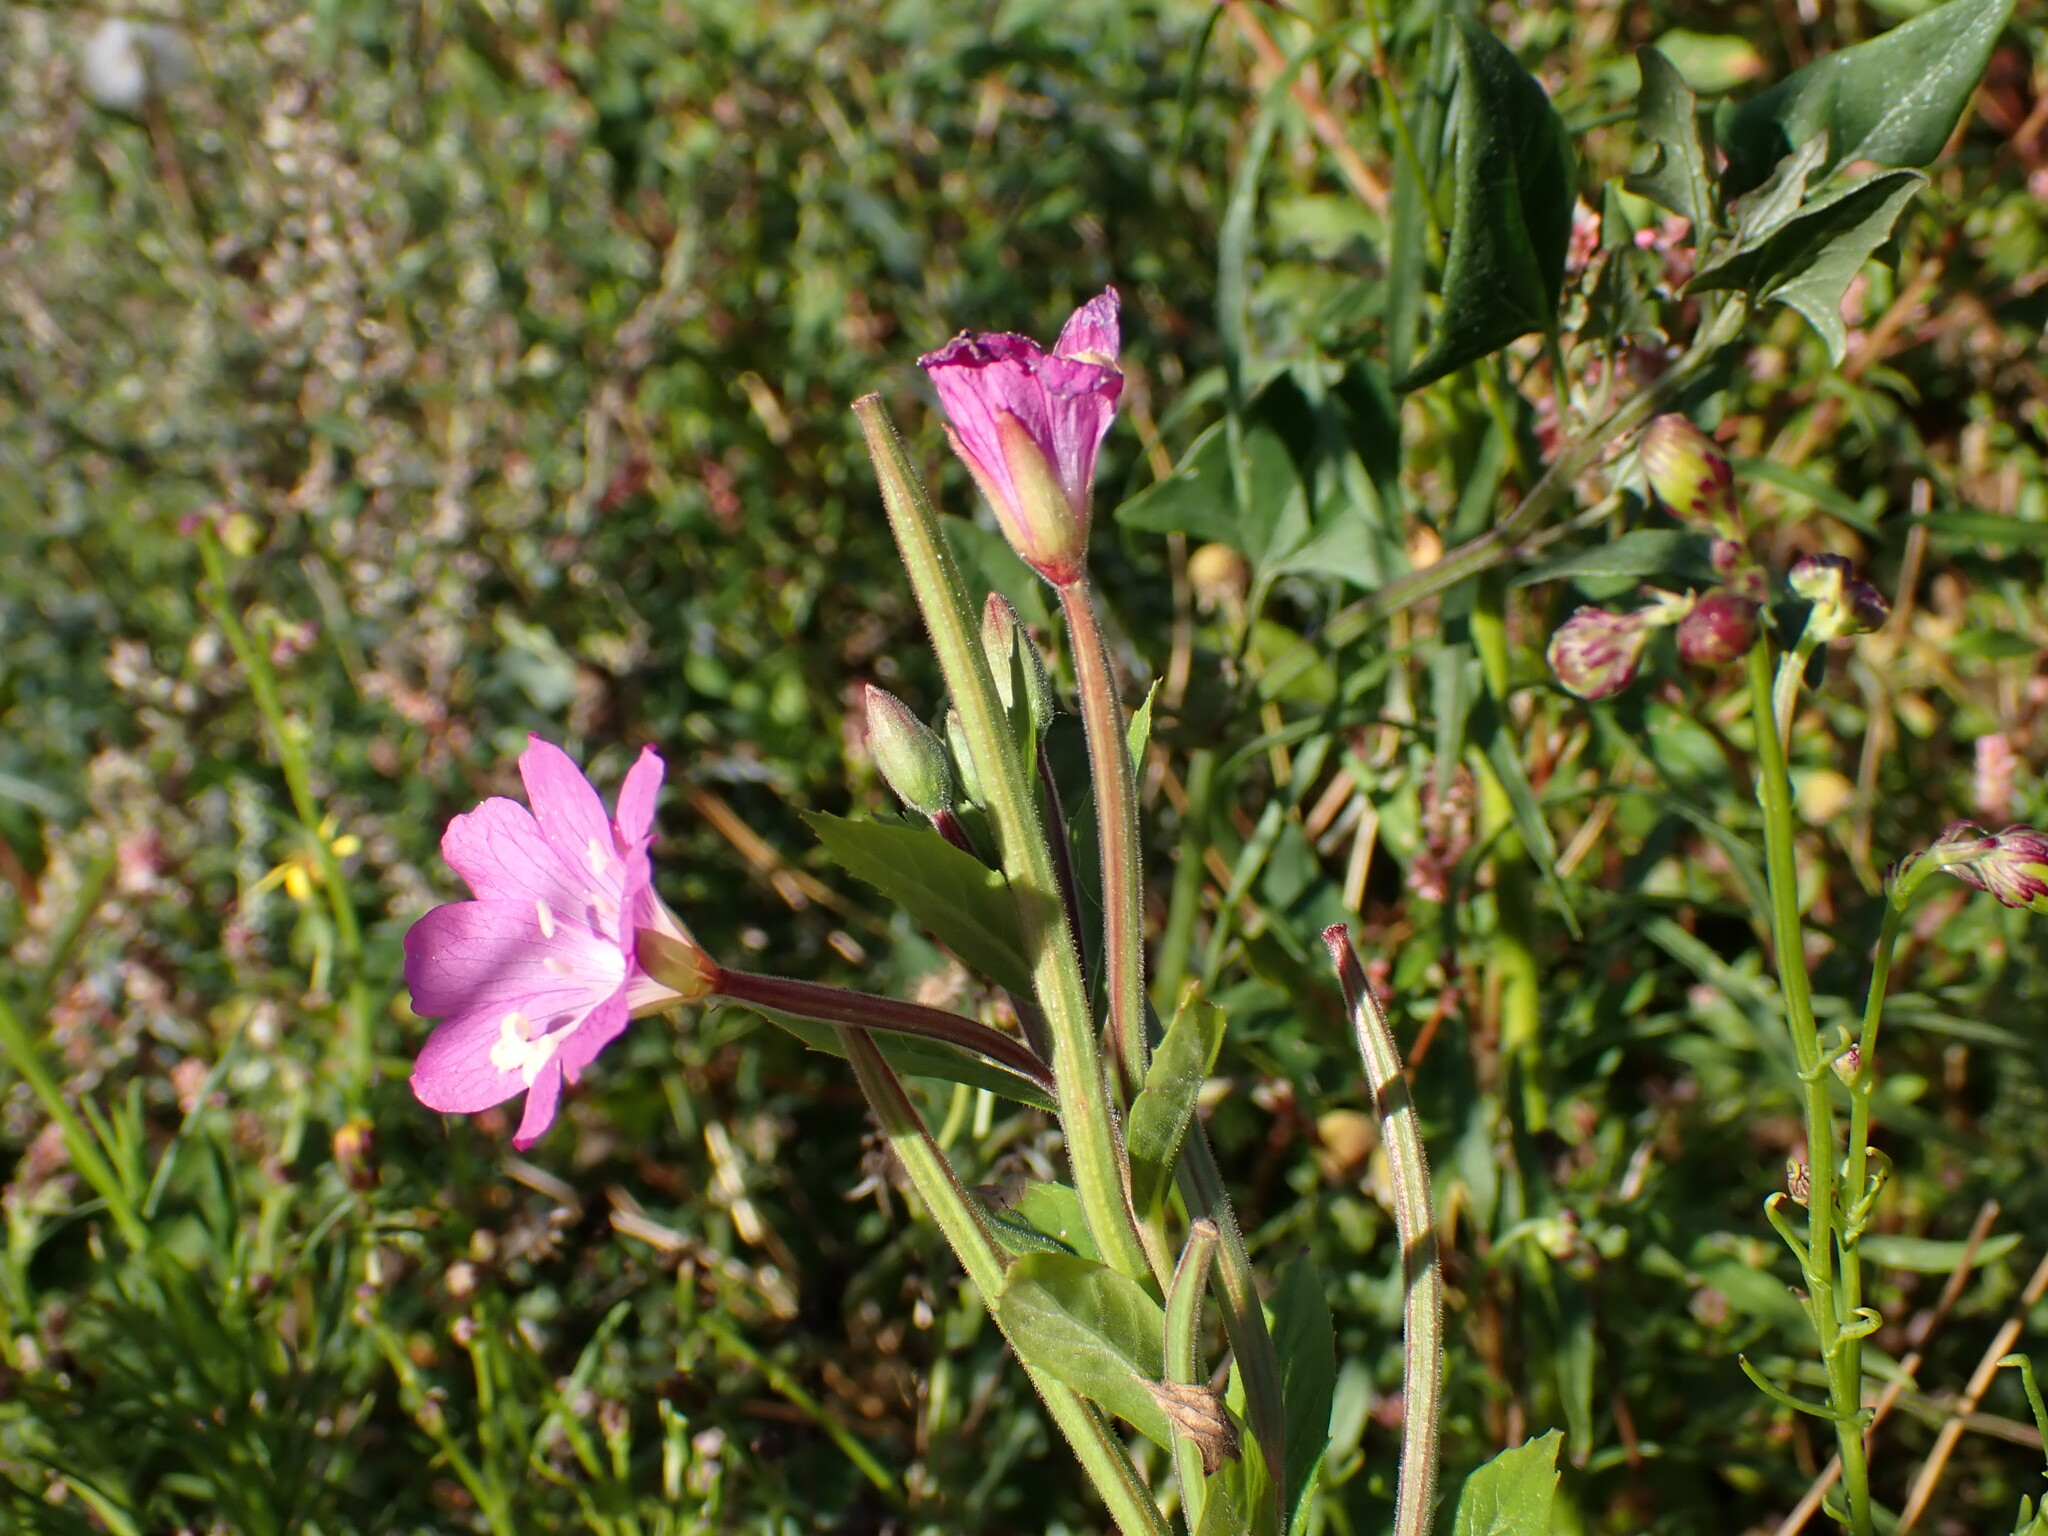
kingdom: Plantae
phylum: Tracheophyta
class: Magnoliopsida
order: Myrtales
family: Onagraceae
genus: Epilobium
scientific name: Epilobium hirsutum
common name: Great willowherb
